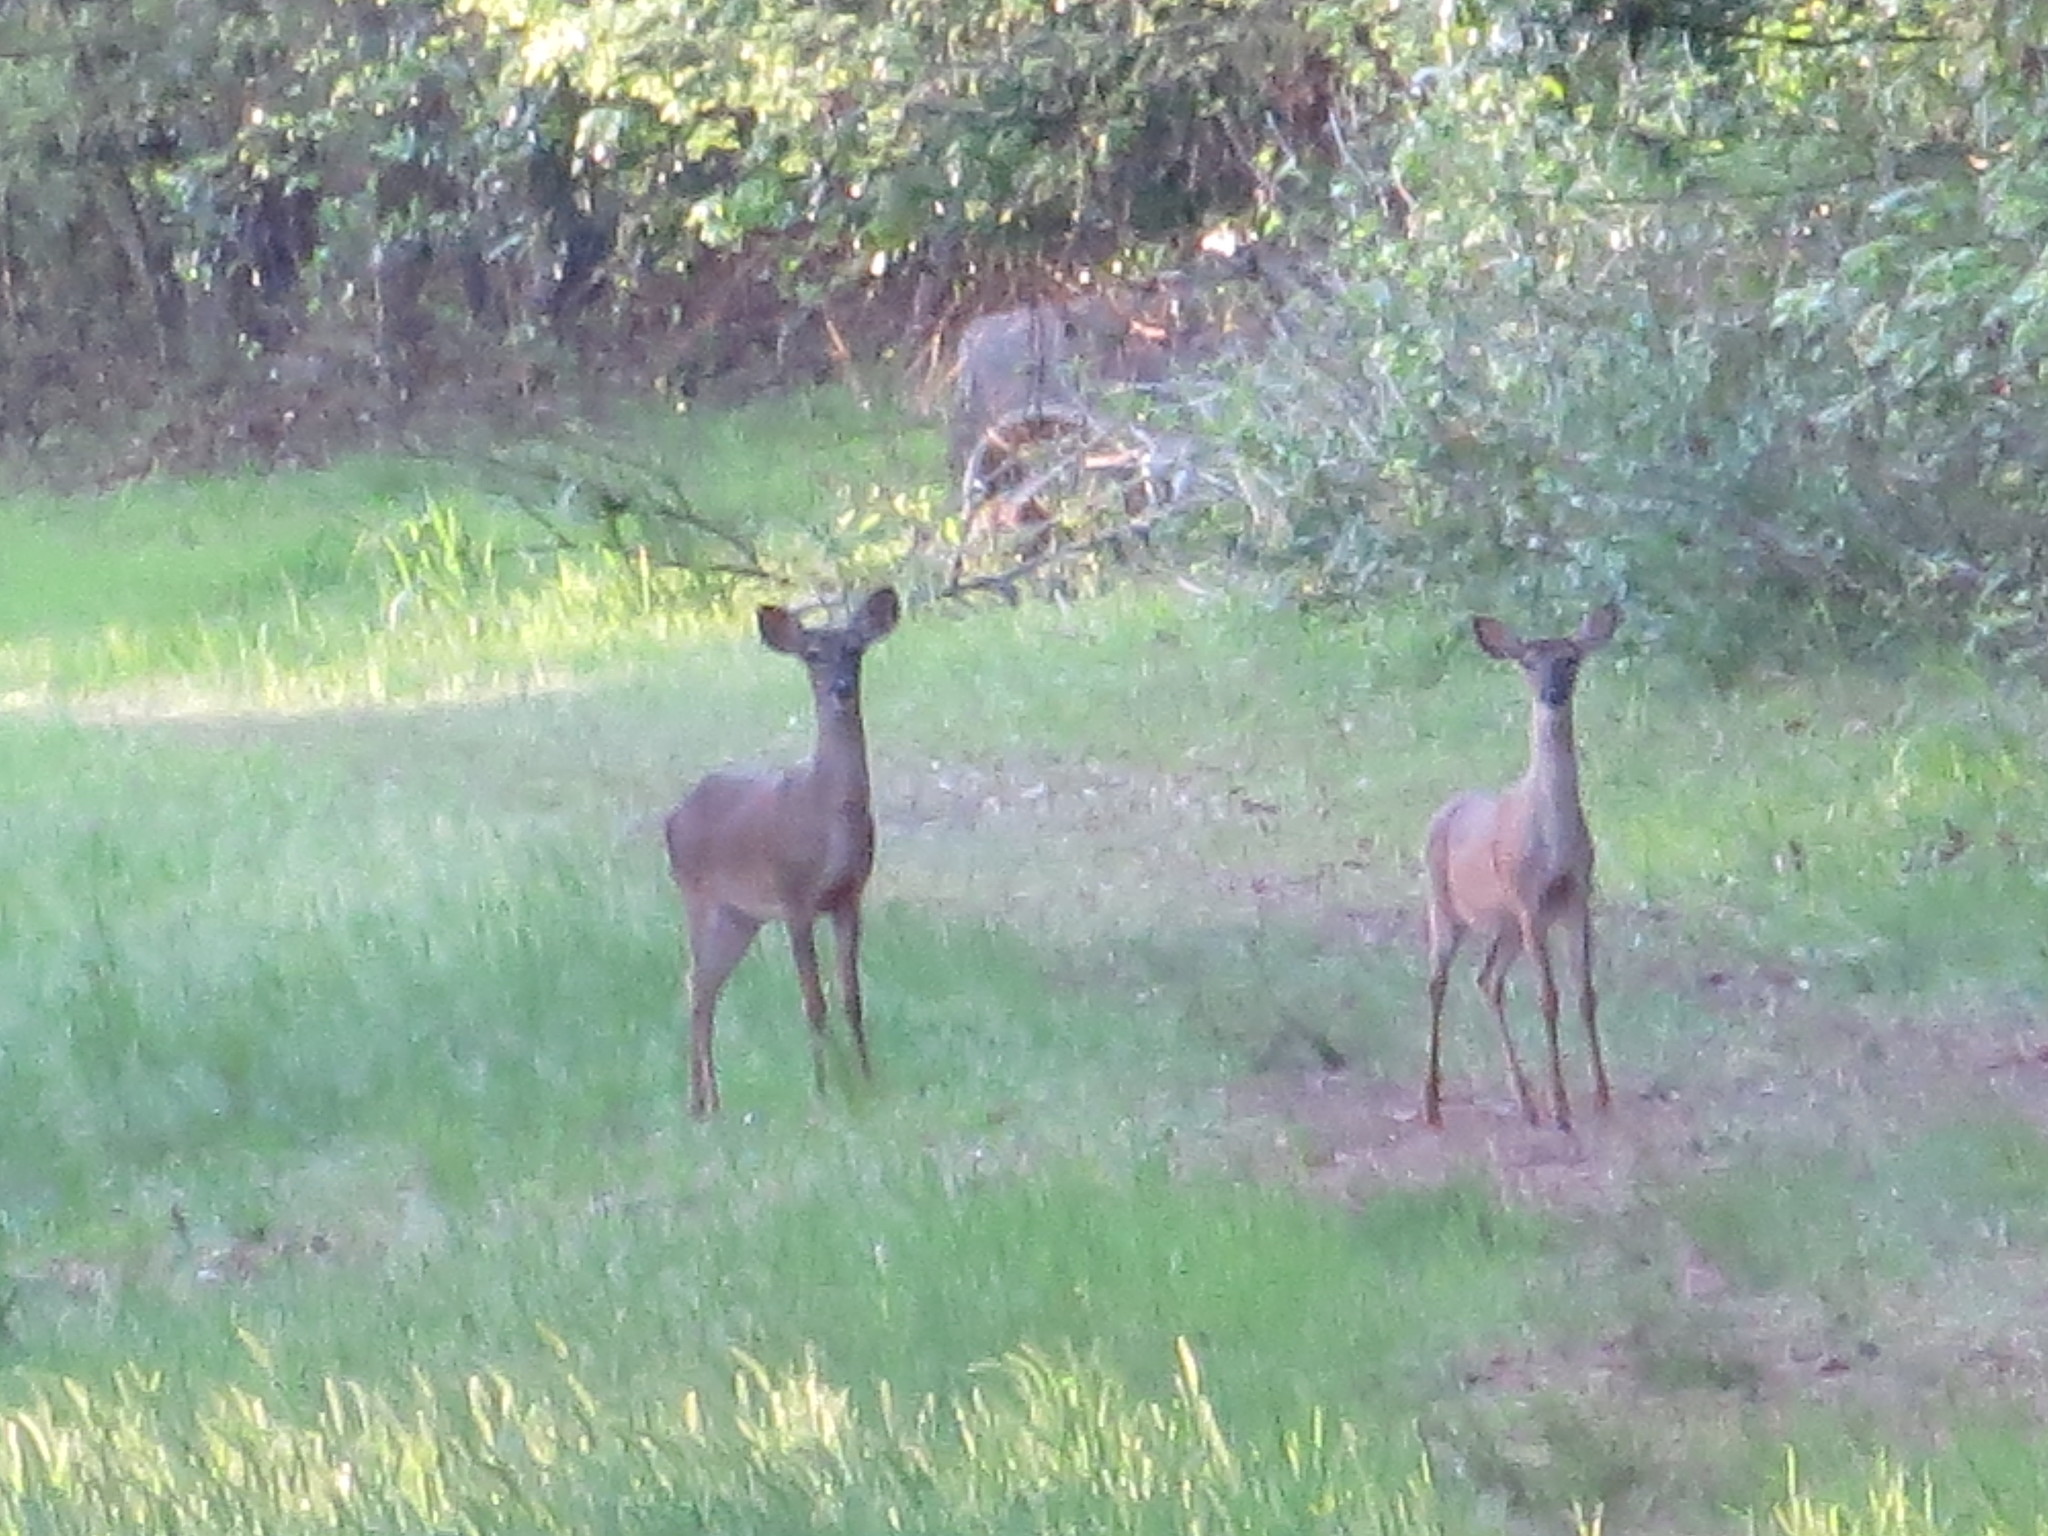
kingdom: Animalia
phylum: Chordata
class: Mammalia
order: Artiodactyla
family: Cervidae
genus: Odocoileus
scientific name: Odocoileus virginianus
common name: White-tailed deer
